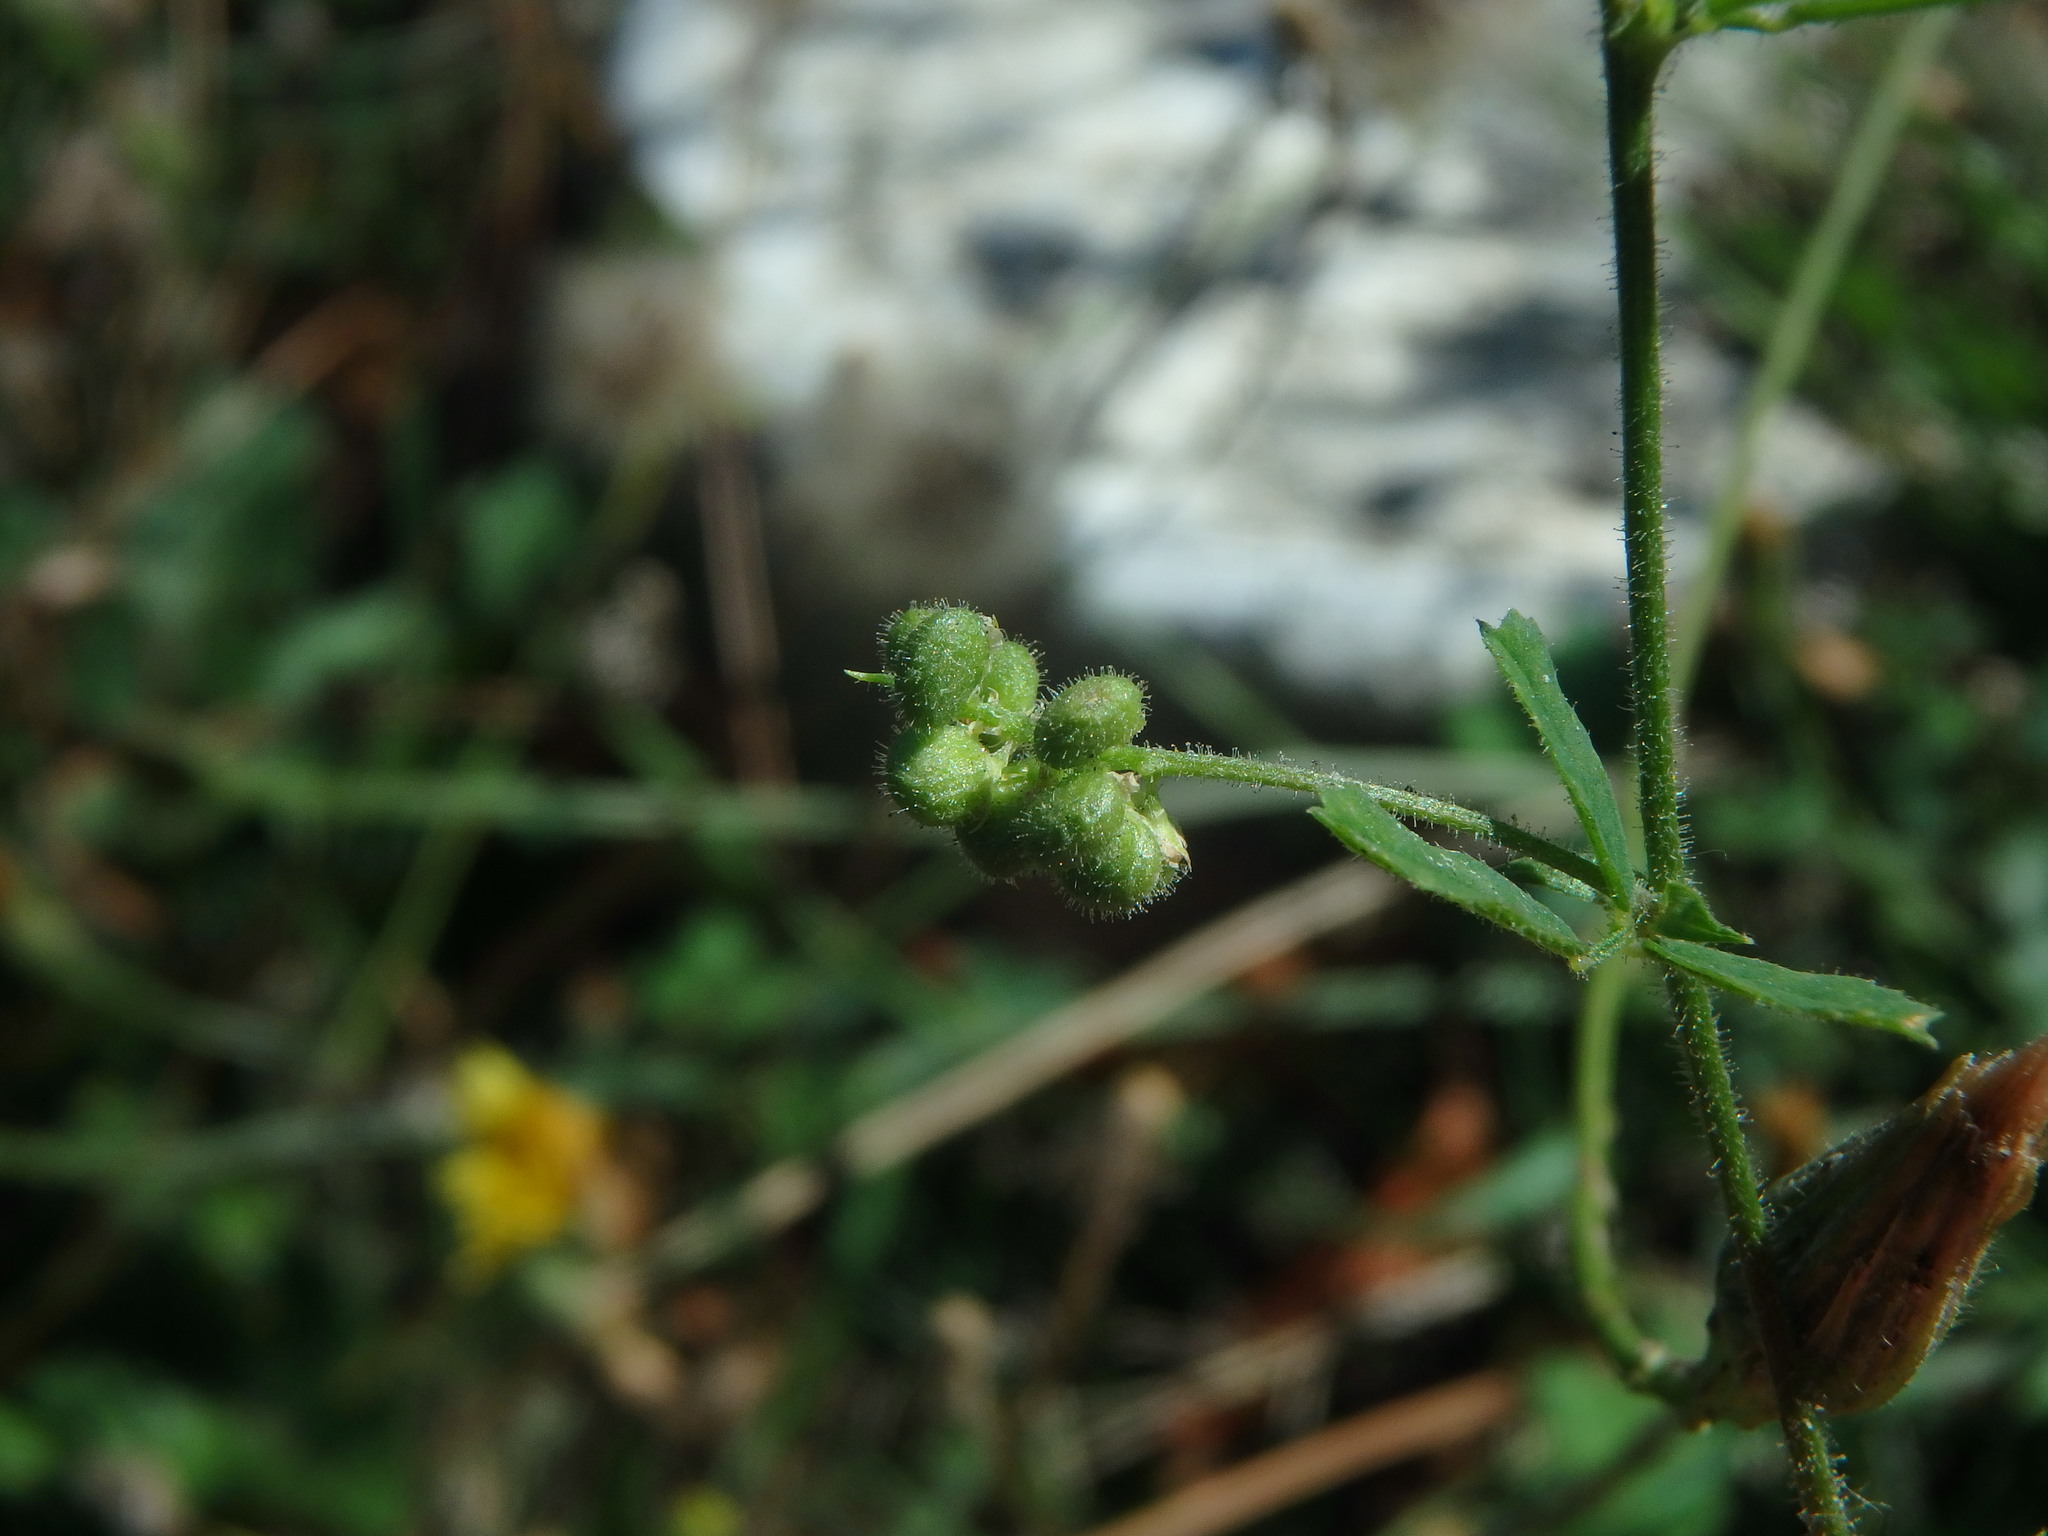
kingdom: Plantae
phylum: Tracheophyta
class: Magnoliopsida
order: Fabales
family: Fabaceae
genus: Medicago
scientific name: Medicago lupulina
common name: Black medick
